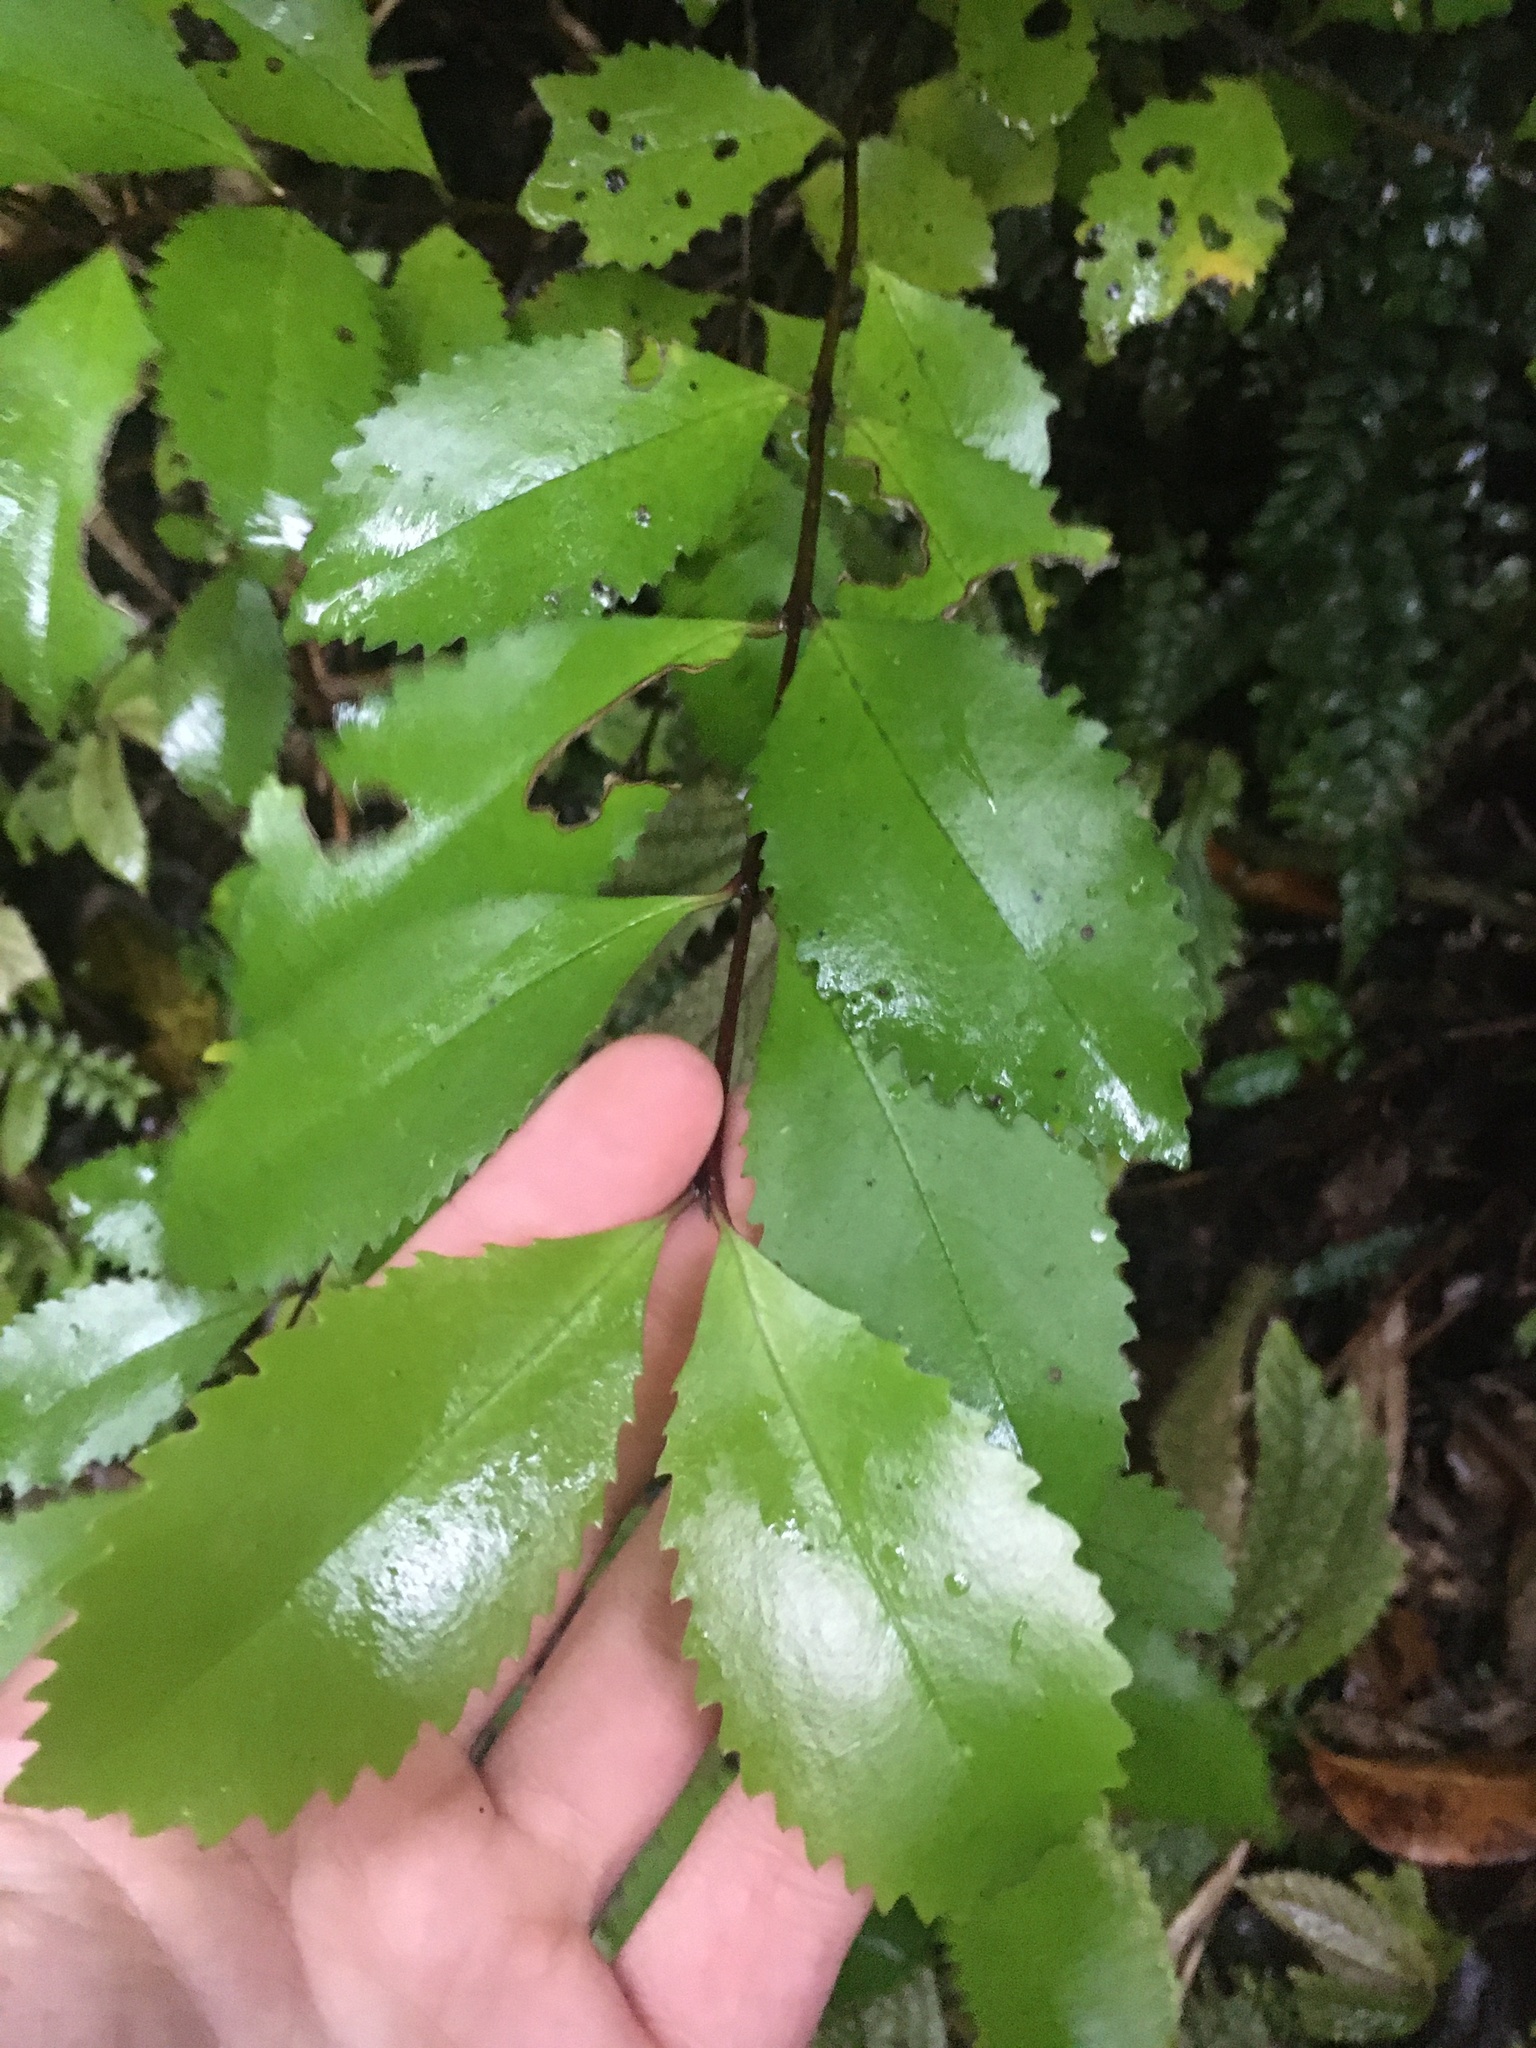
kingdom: Plantae
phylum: Tracheophyta
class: Magnoliopsida
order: Laurales
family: Atherospermataceae
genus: Laurelia
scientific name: Laurelia novae-zelandiae
